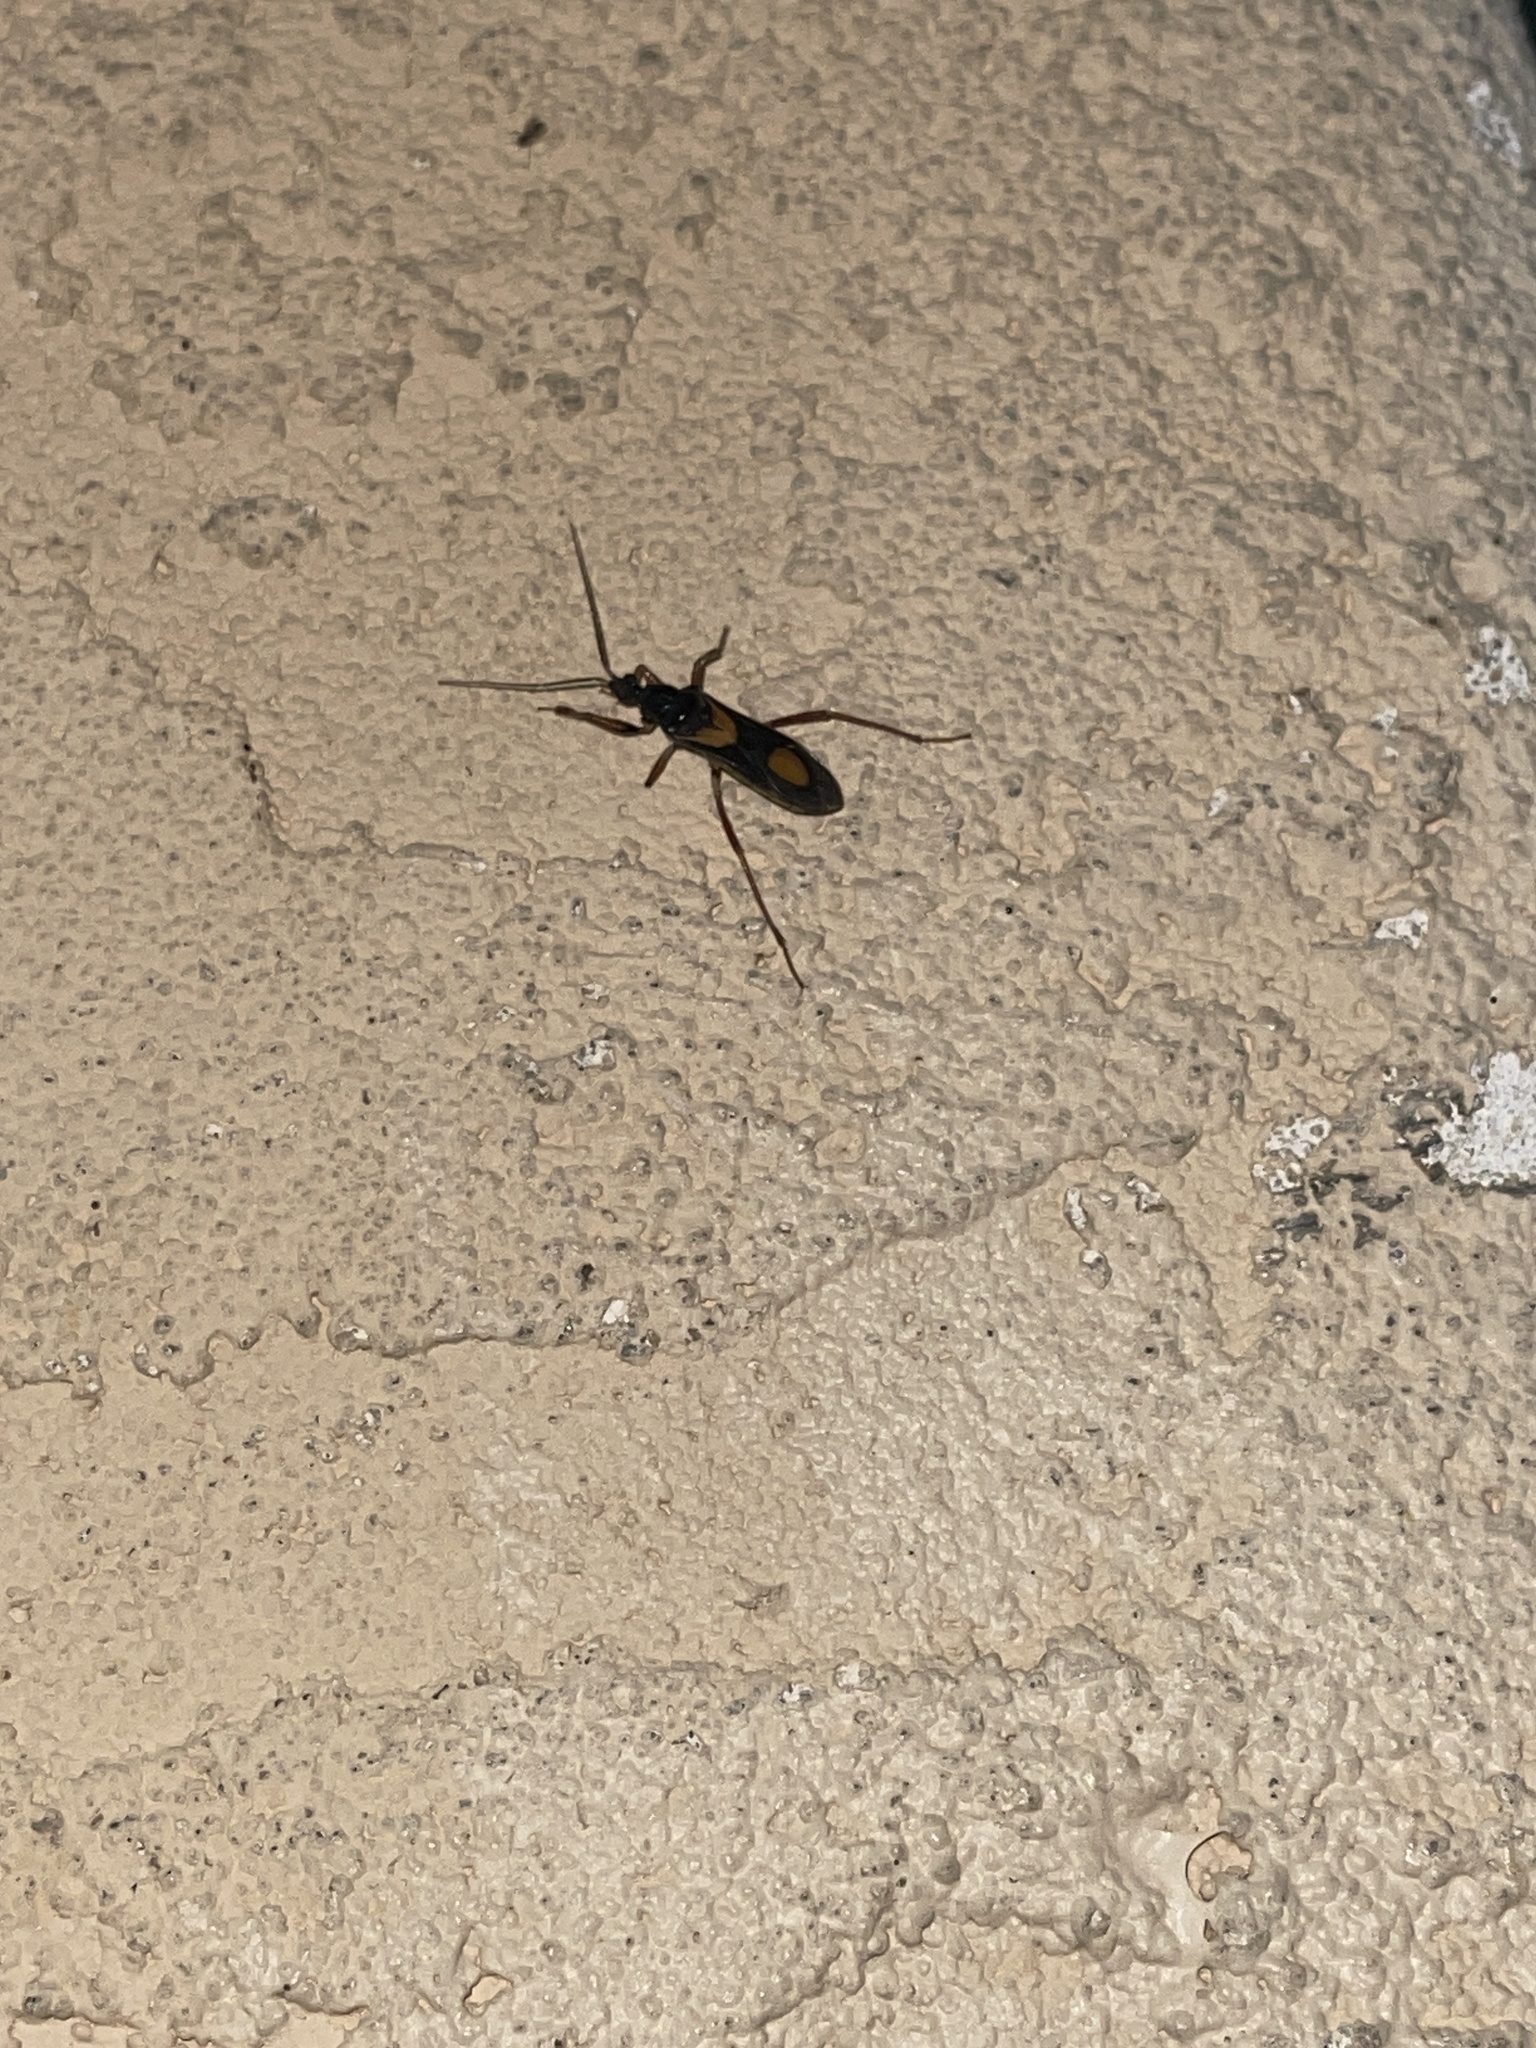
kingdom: Animalia
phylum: Arthropoda
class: Insecta
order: Hemiptera
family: Reduviidae
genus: Rasahus
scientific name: Rasahus hamatus
